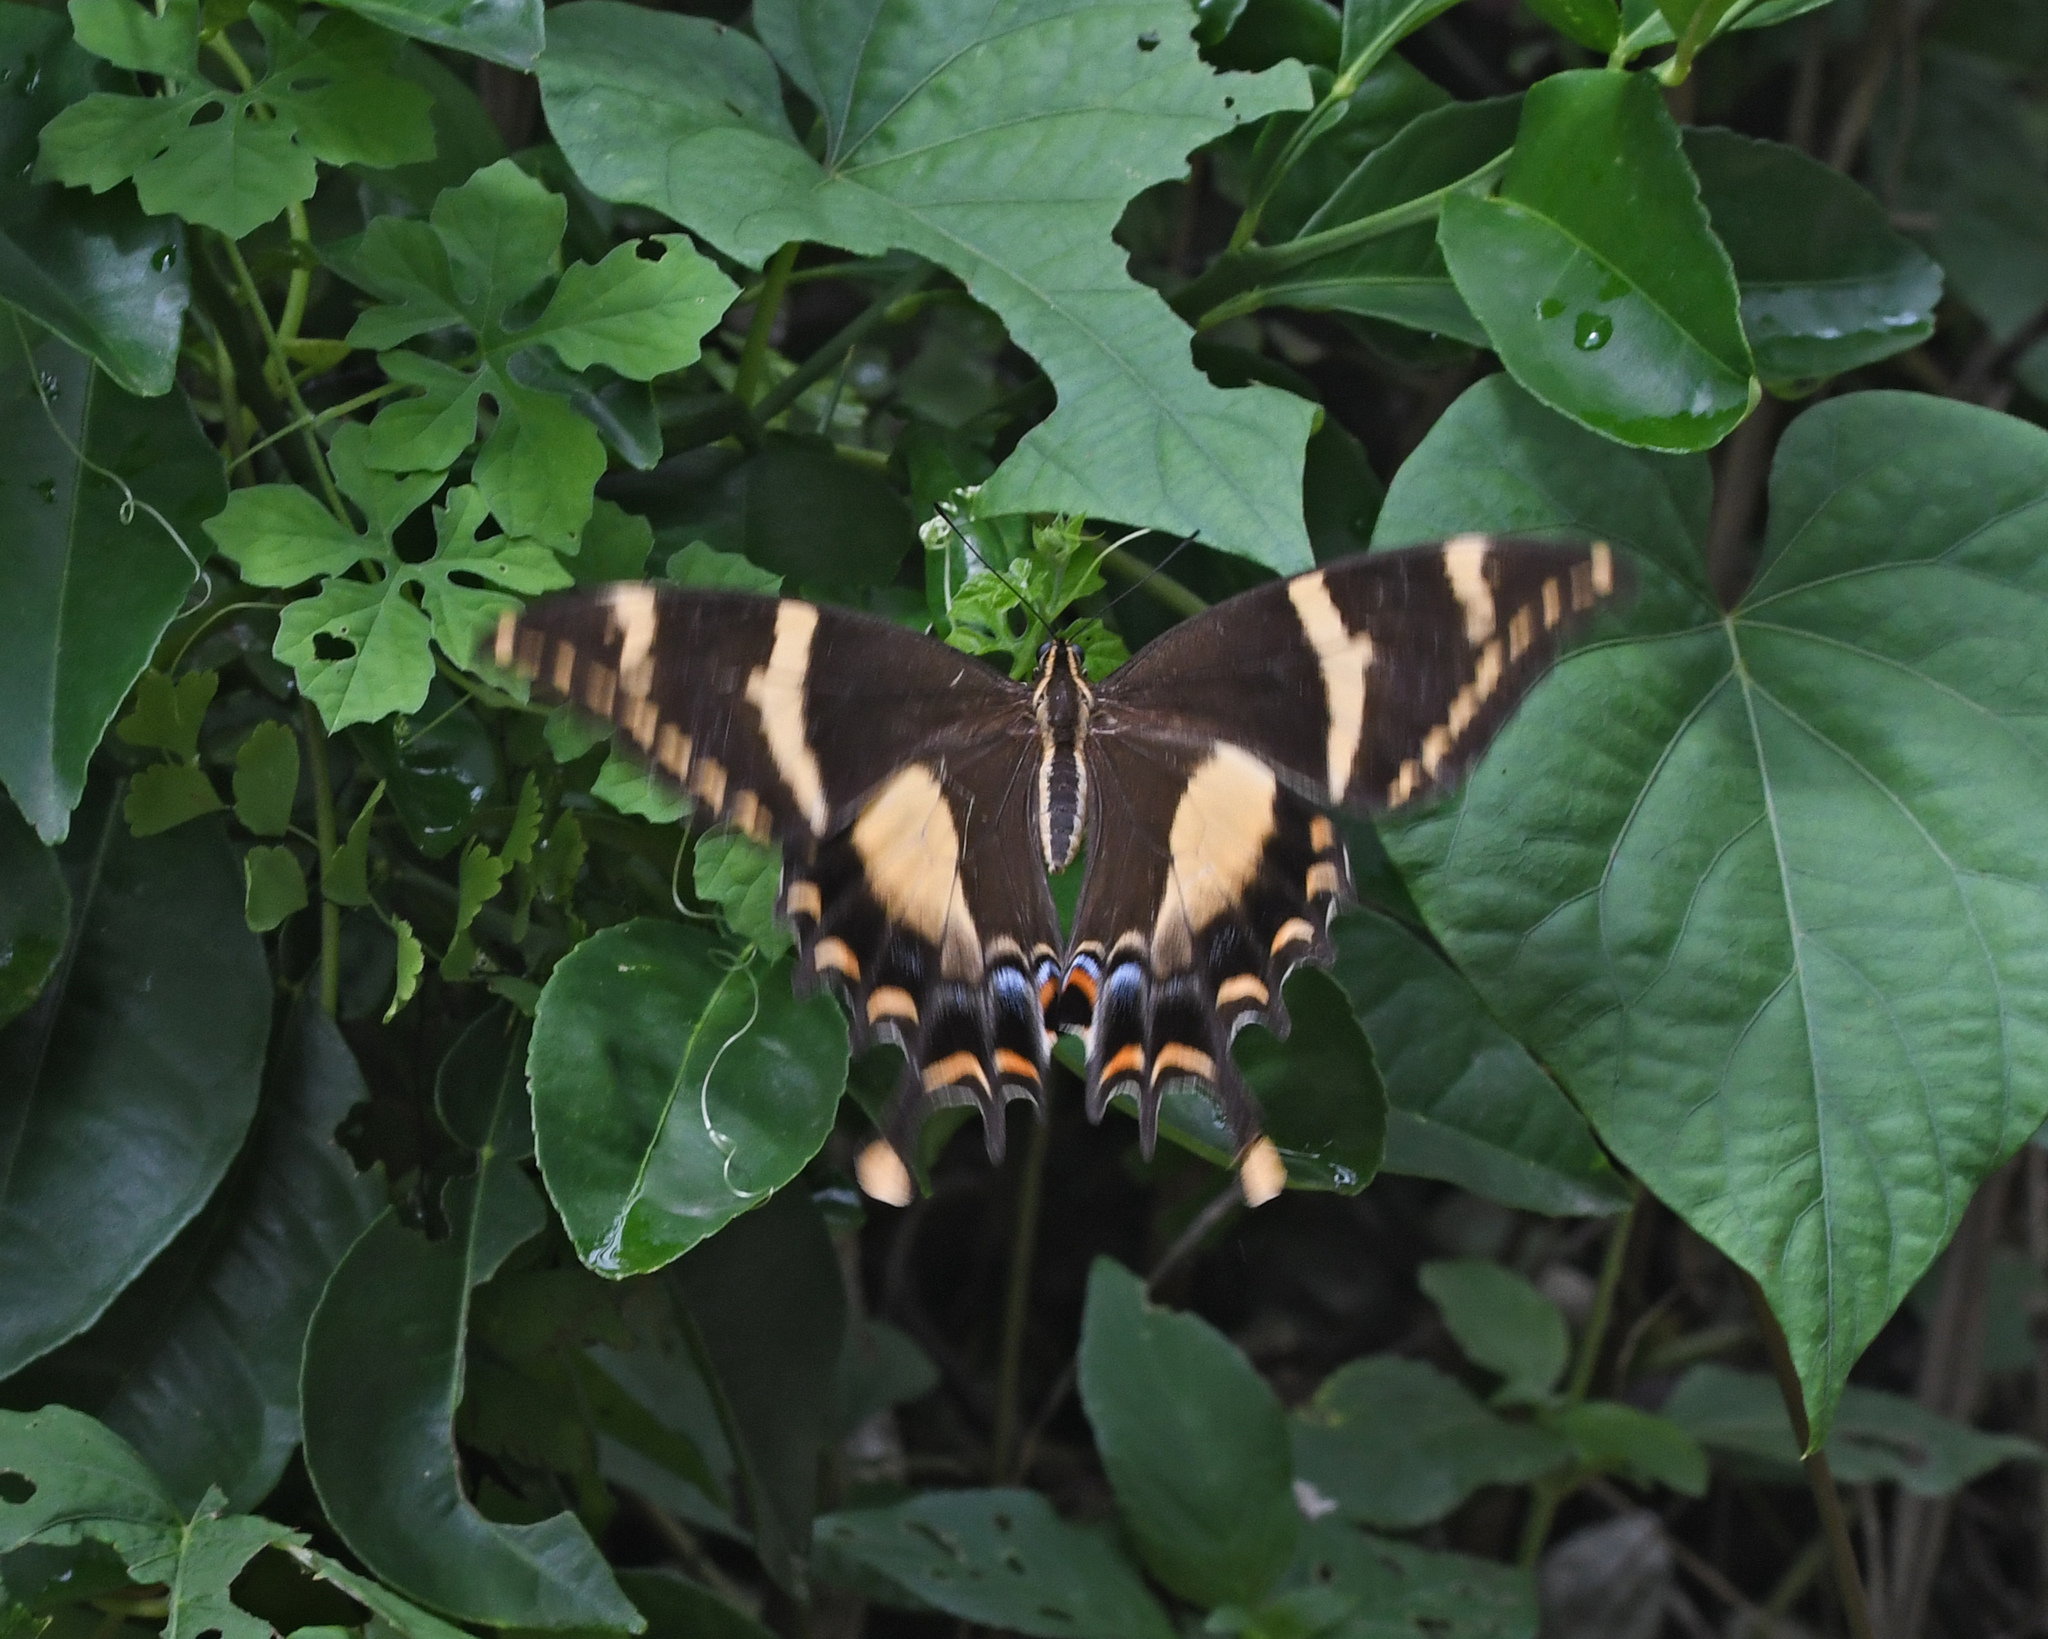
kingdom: Animalia
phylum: Arthropoda
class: Insecta
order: Lepidoptera
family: Papilionidae
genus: Papilio
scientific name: Papilio machaonides
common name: Machaonides swallowtail
